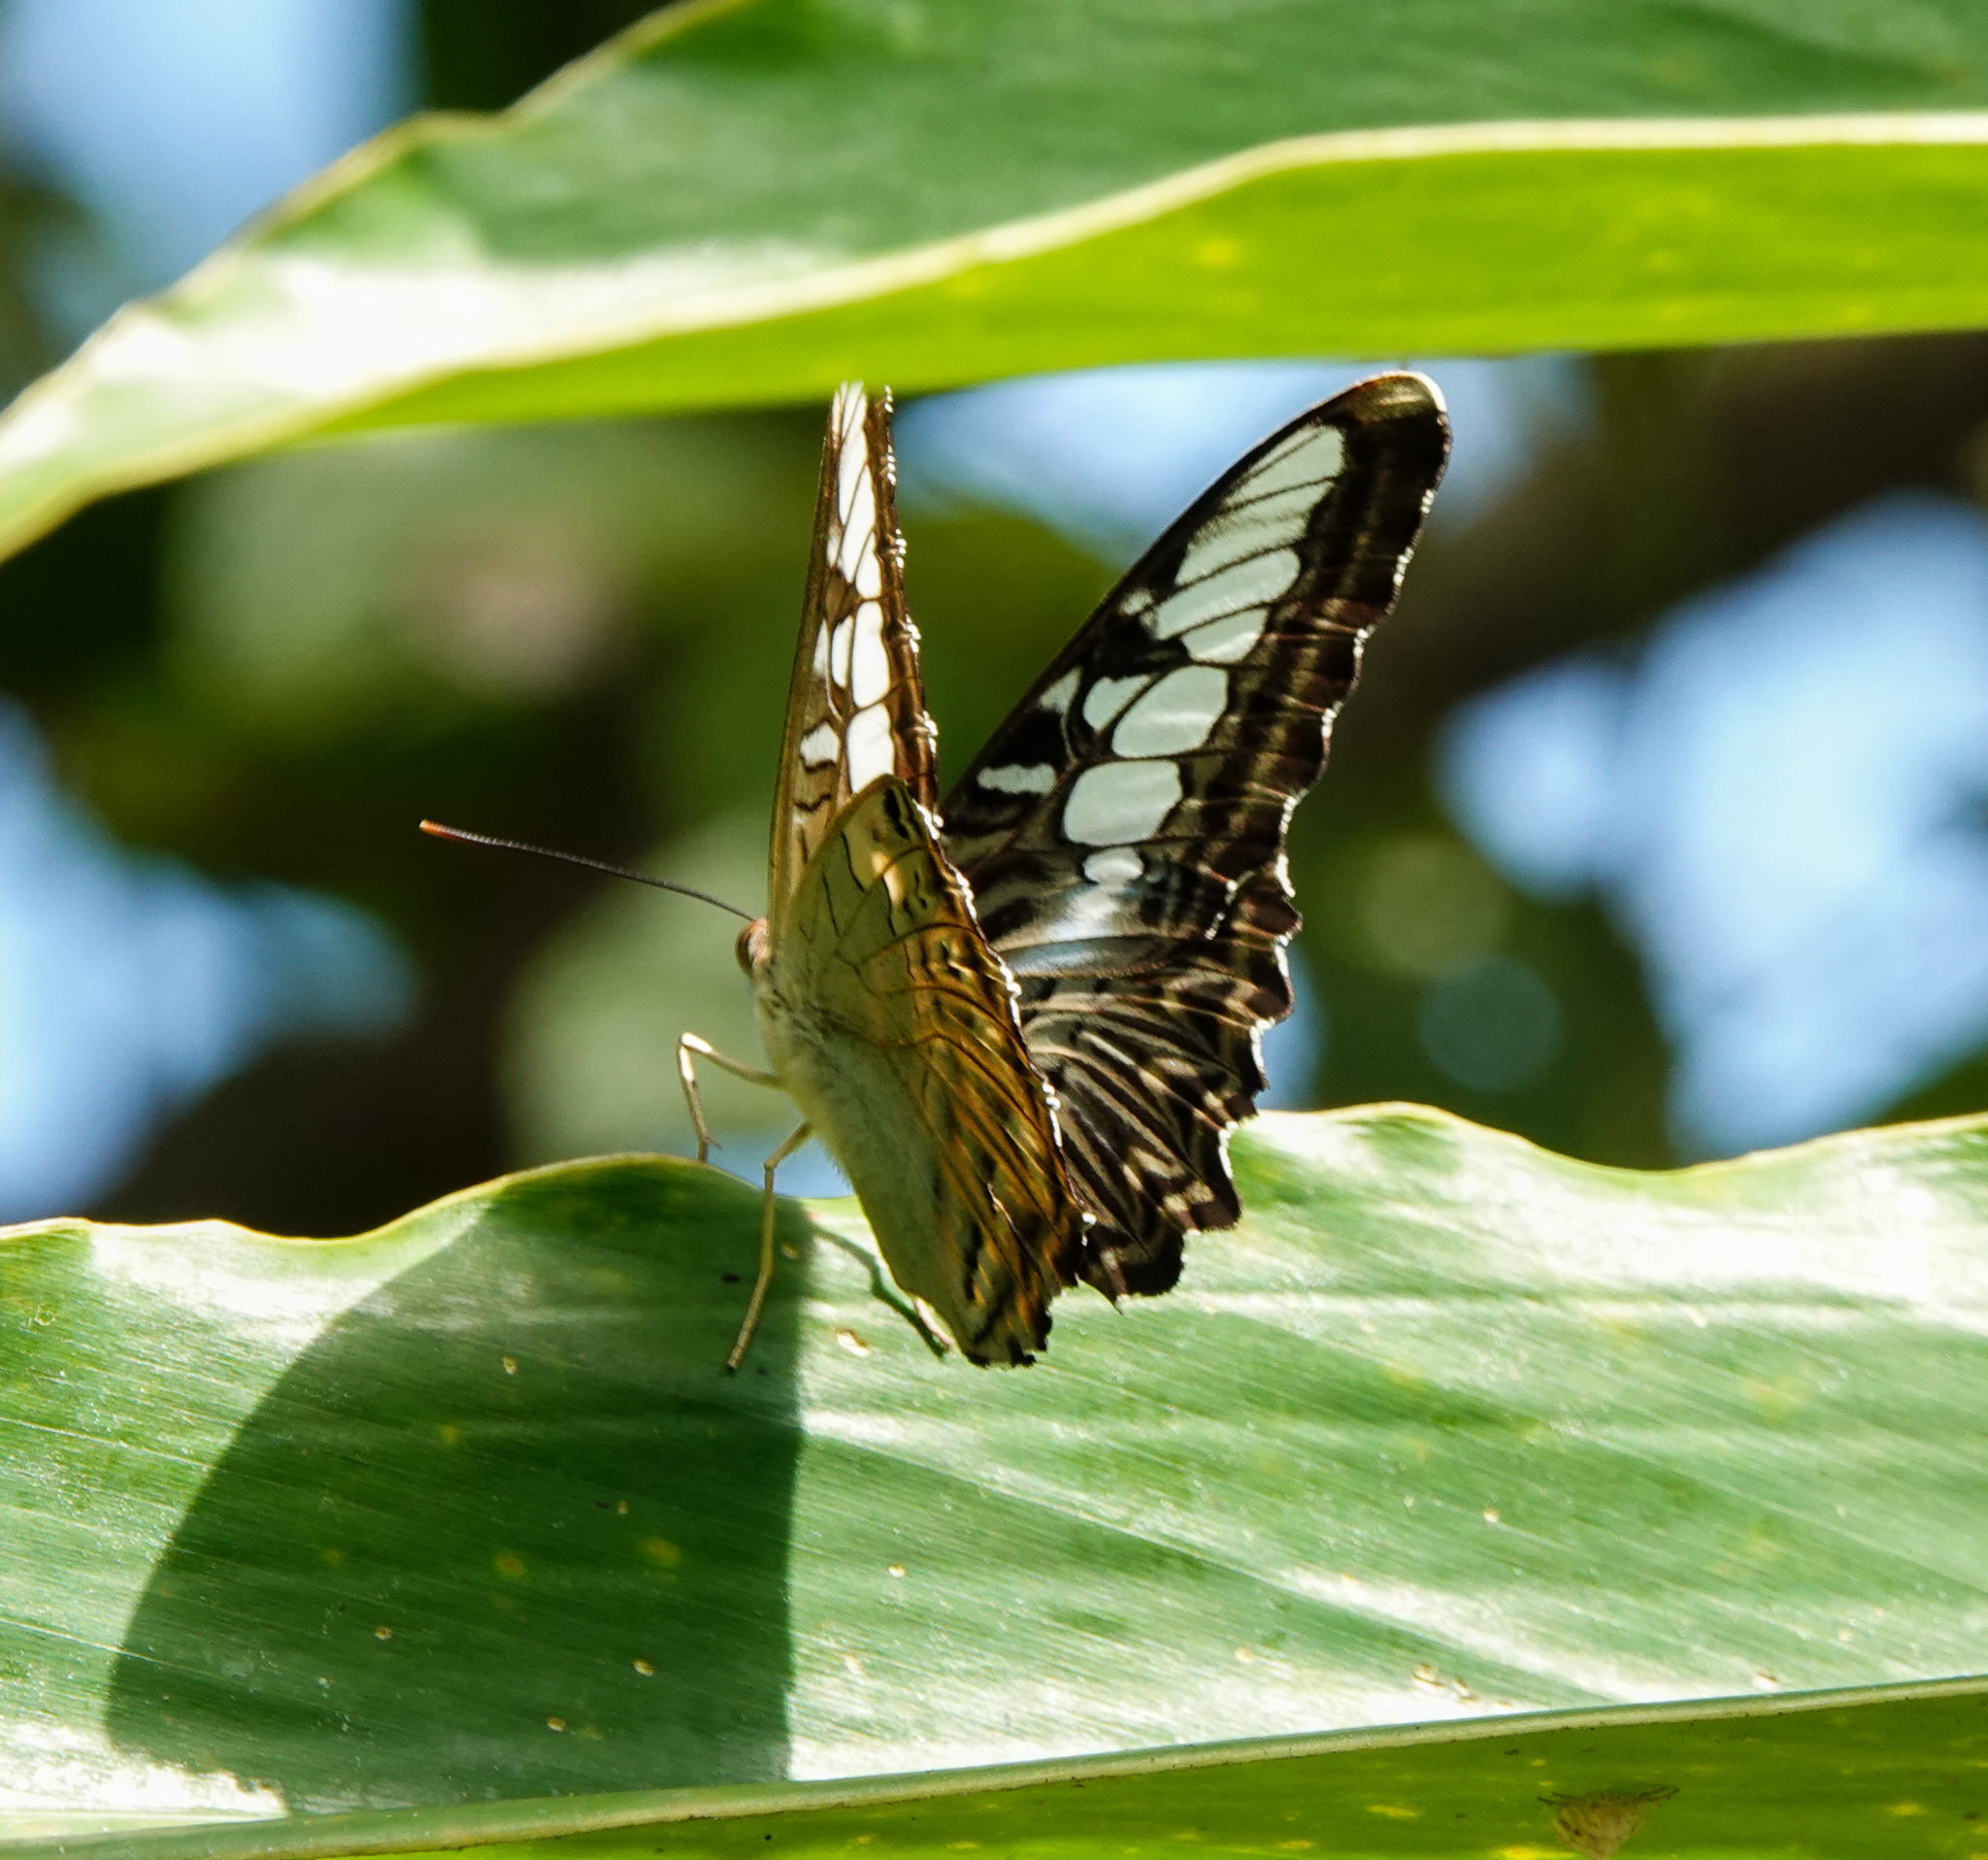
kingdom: Animalia
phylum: Arthropoda
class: Insecta
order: Lepidoptera
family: Nymphalidae
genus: Kallima
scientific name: Kallima sylvia
